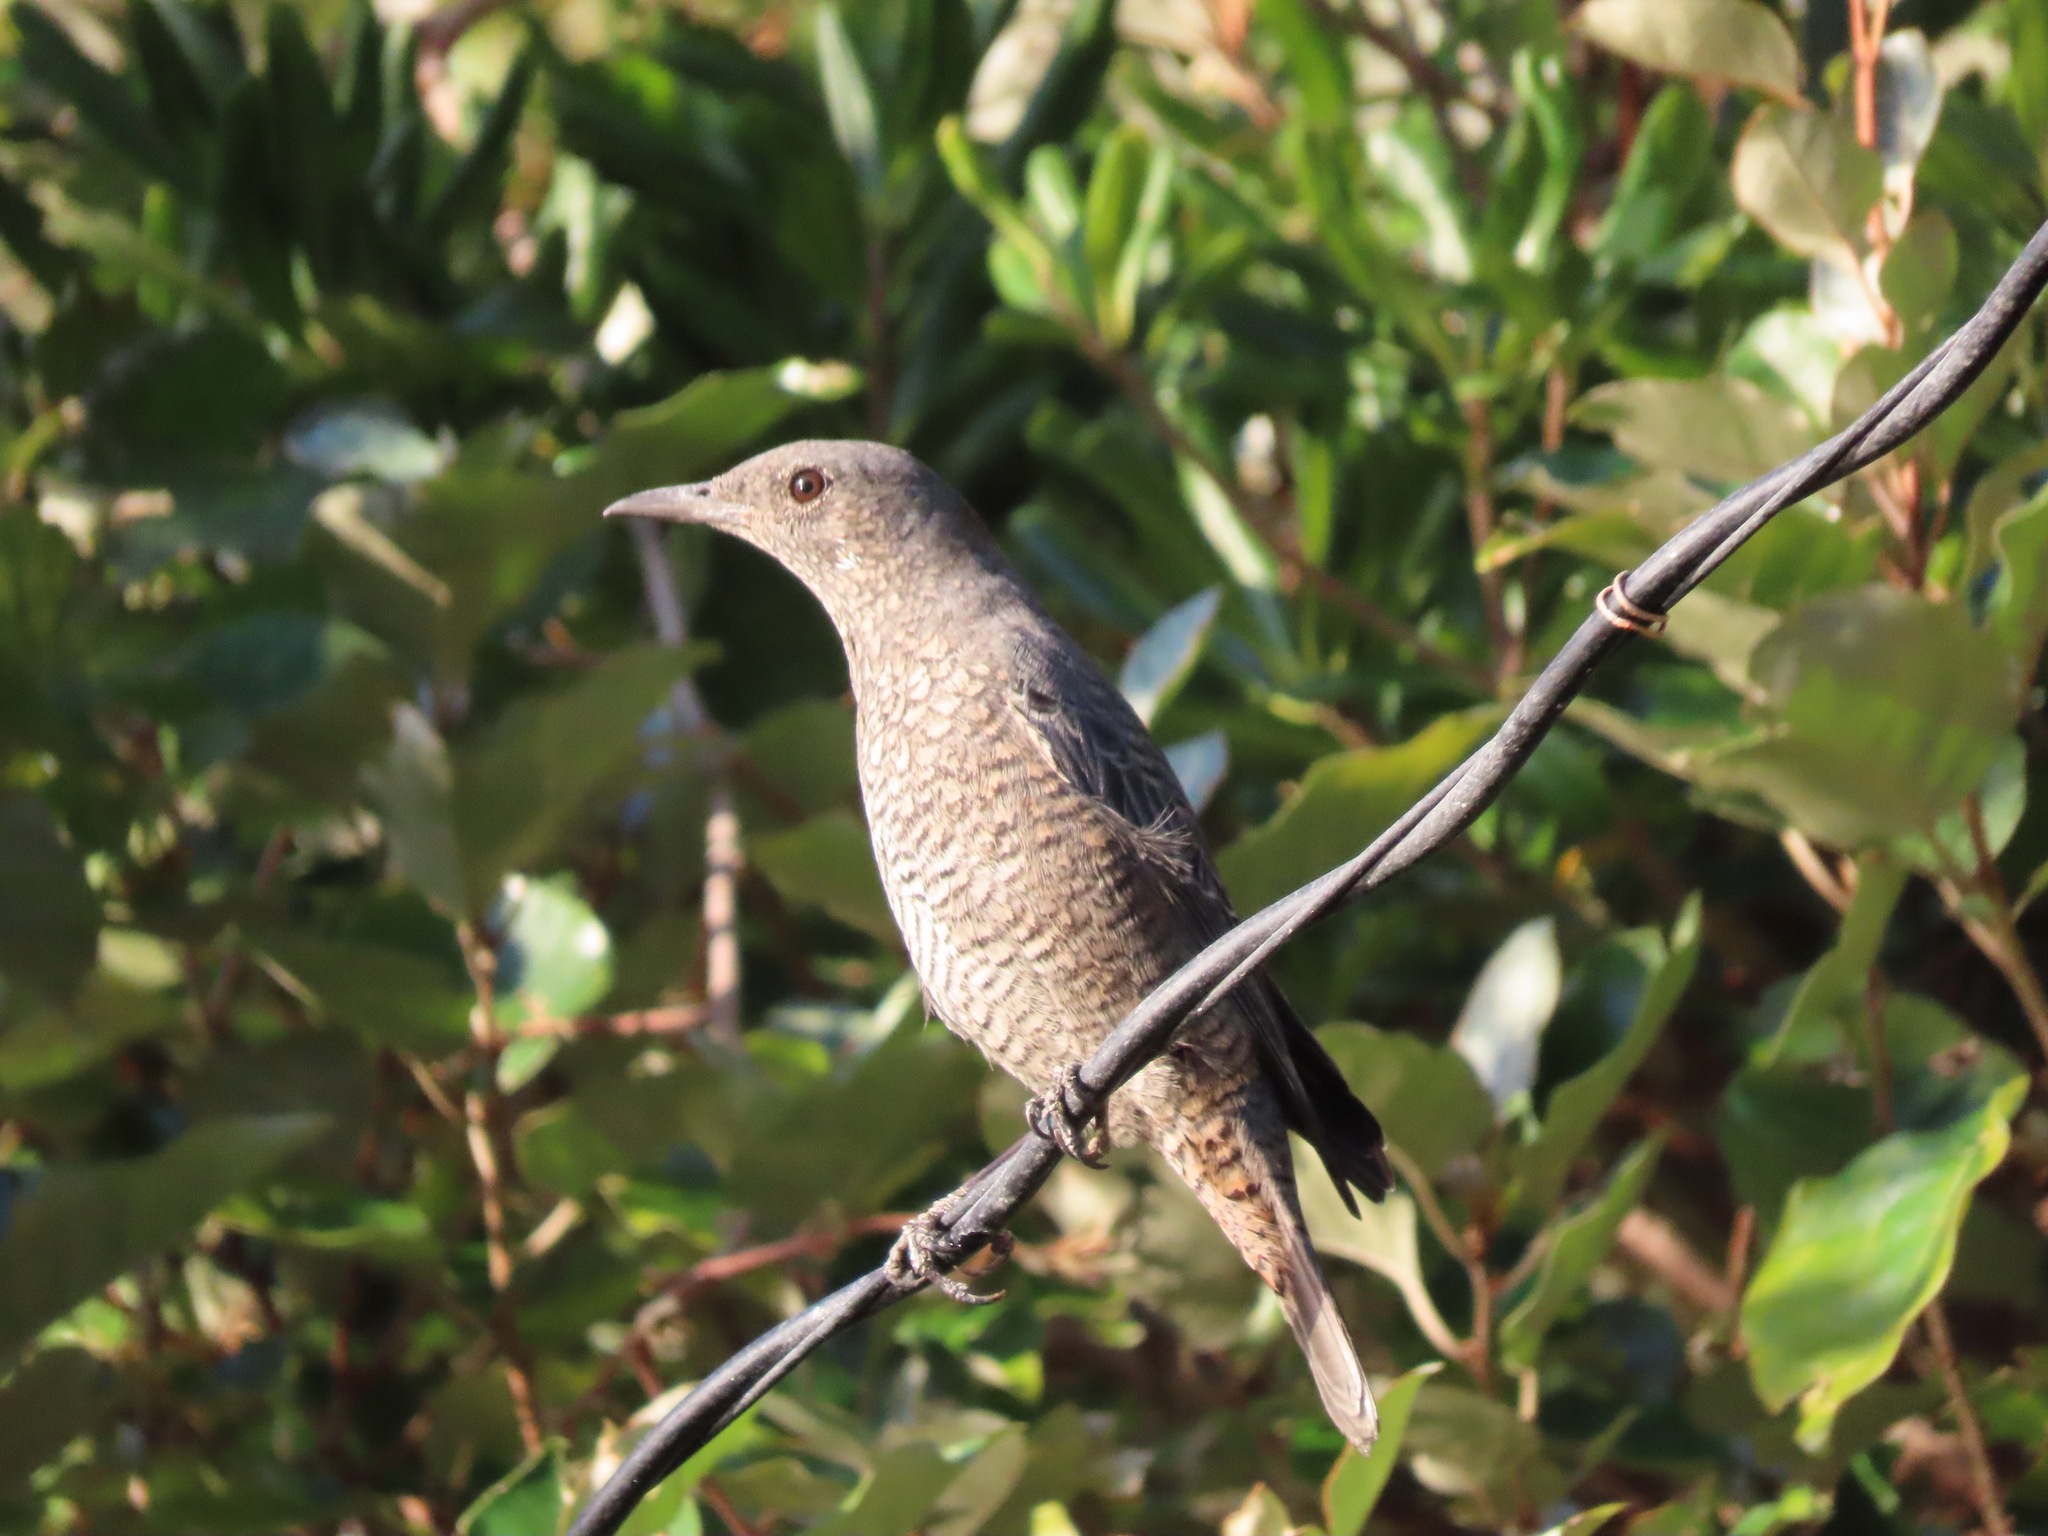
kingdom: Animalia
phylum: Chordata
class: Aves
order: Passeriformes
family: Muscicapidae
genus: Monticola
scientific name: Monticola solitarius
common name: Blue rock thrush
